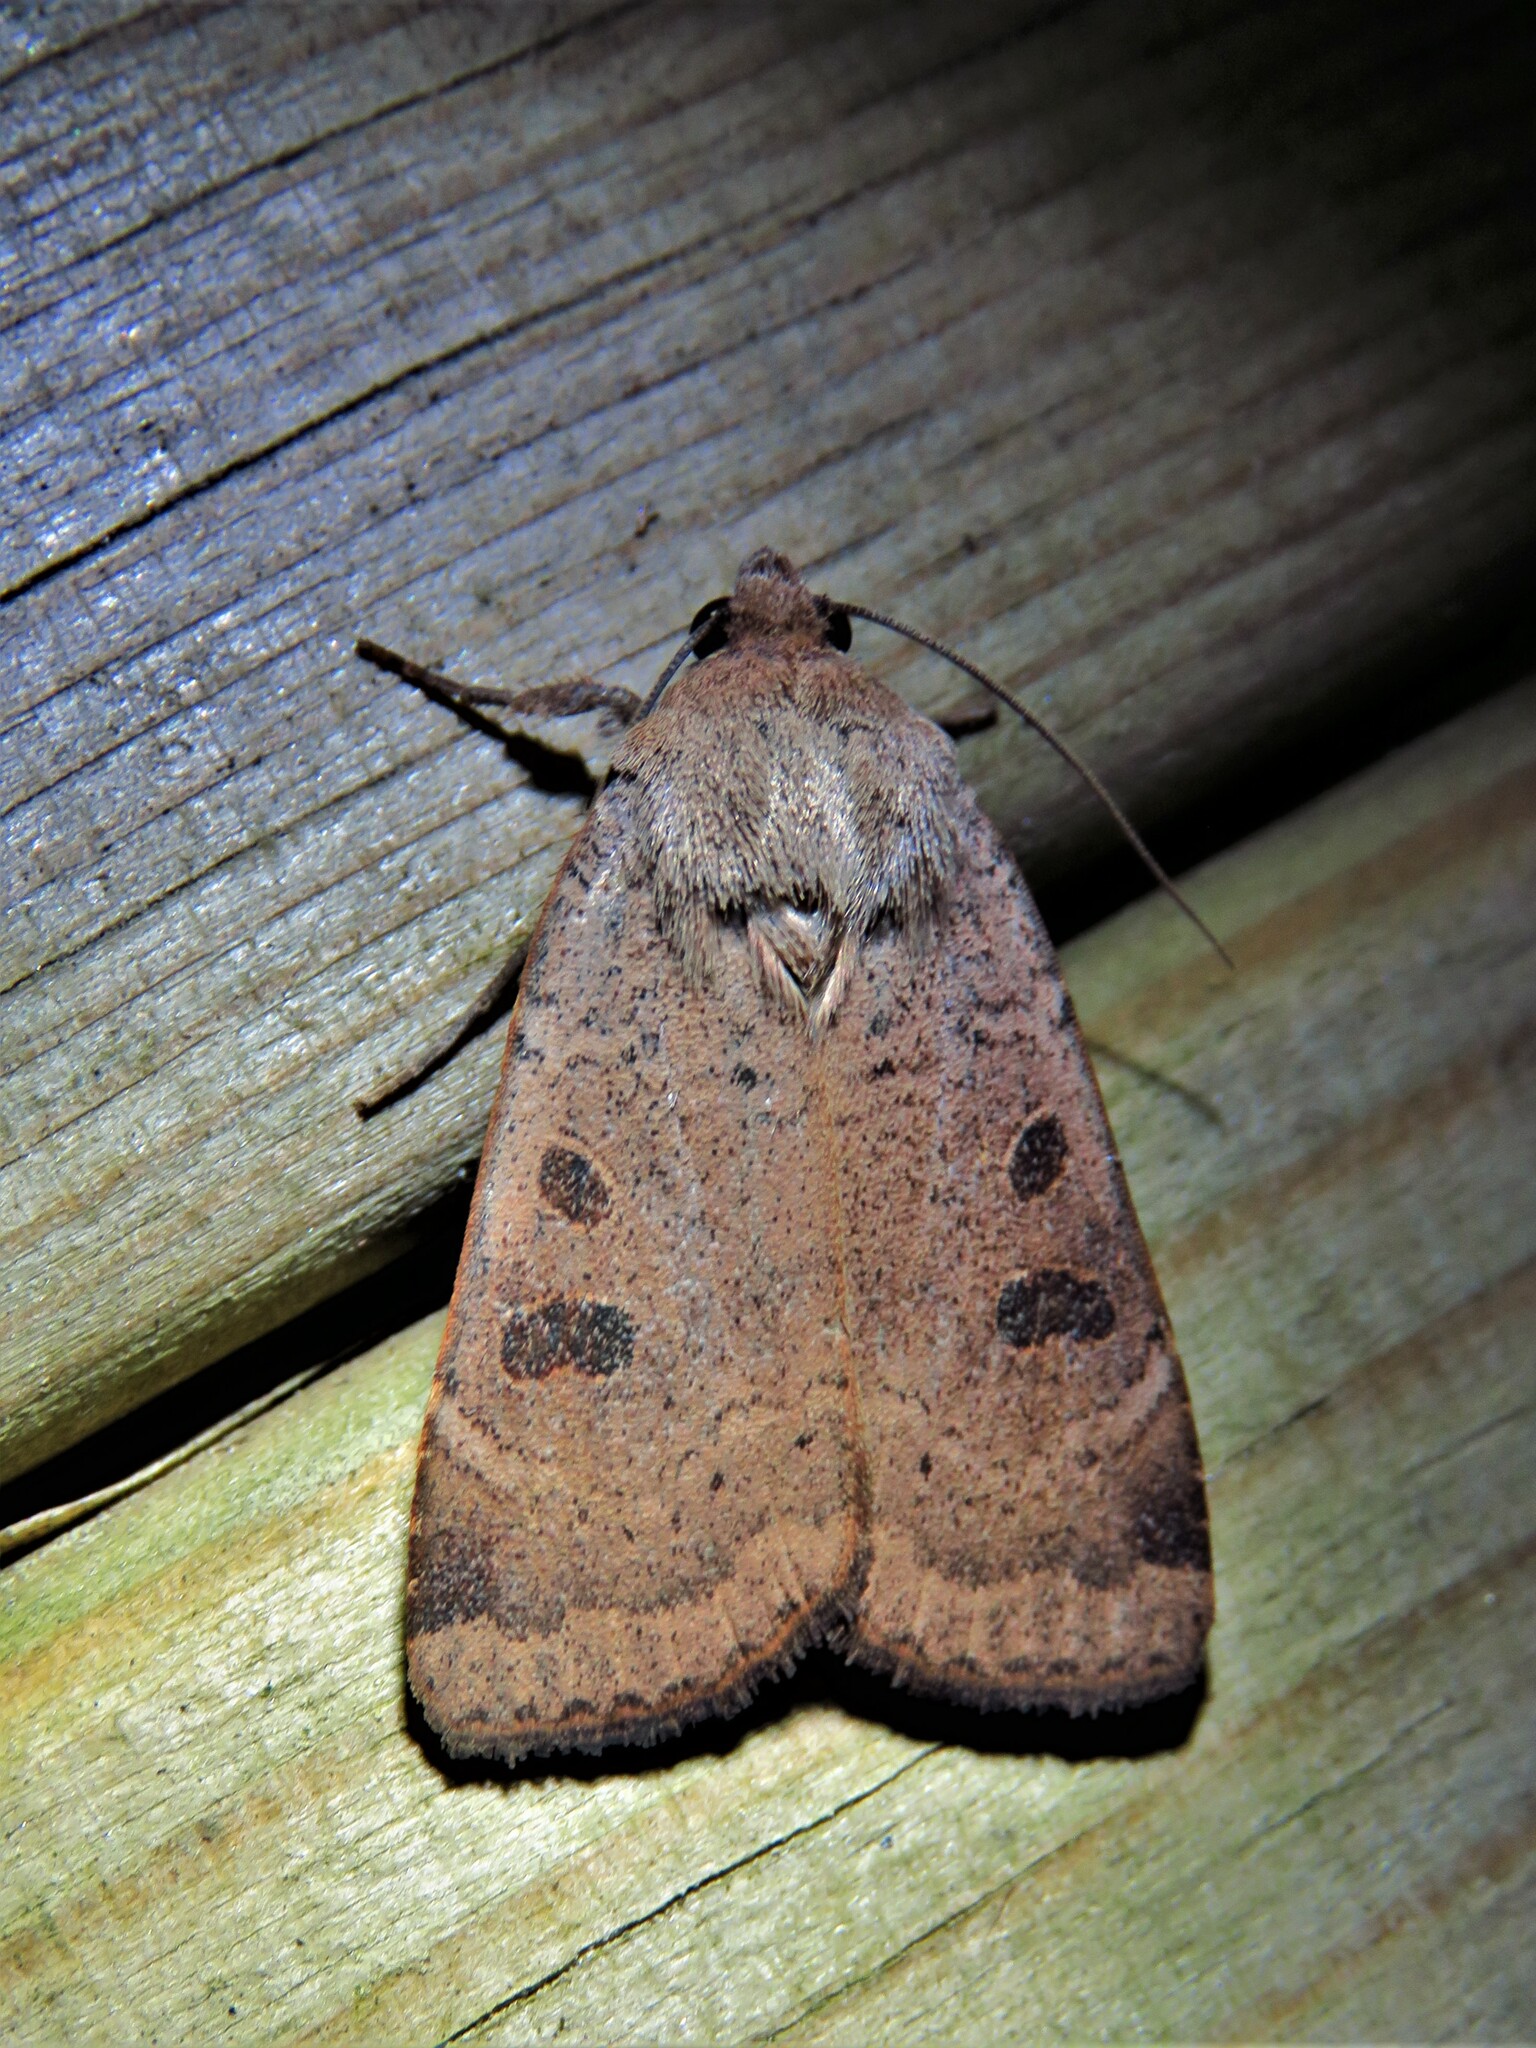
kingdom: Animalia
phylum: Arthropoda
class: Insecta
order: Lepidoptera
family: Noctuidae
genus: Noctua
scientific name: Noctua comes
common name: Lesser yellow underwing
